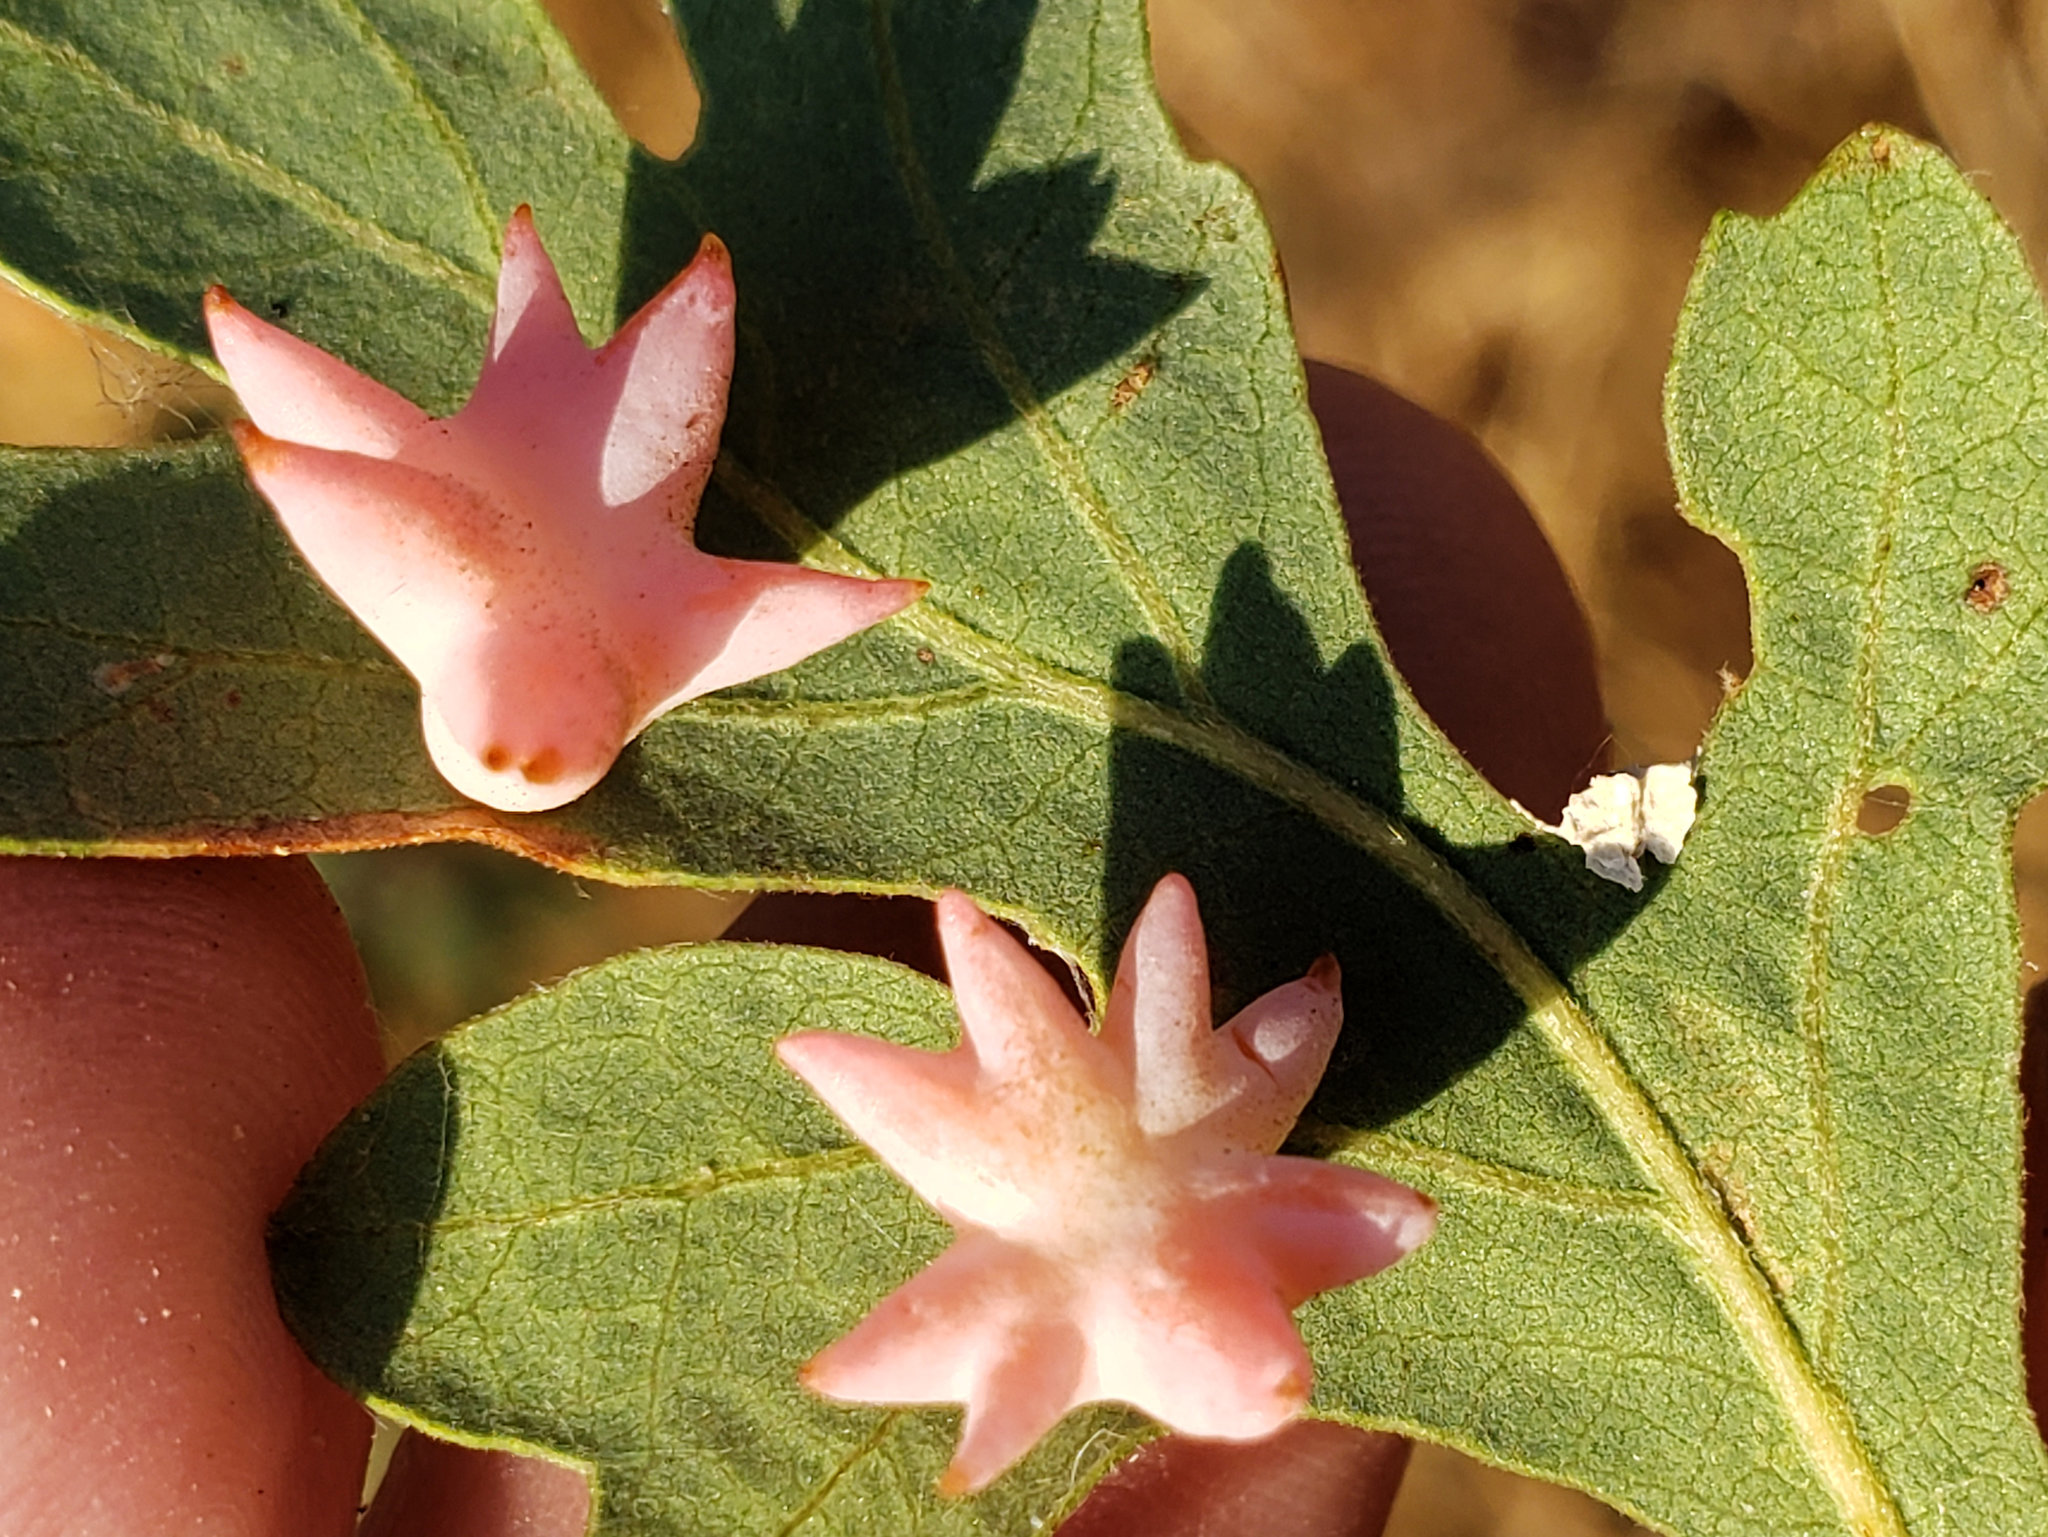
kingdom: Animalia
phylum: Arthropoda
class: Insecta
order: Hymenoptera
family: Cynipidae
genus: Cynips
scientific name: Cynips douglasi
